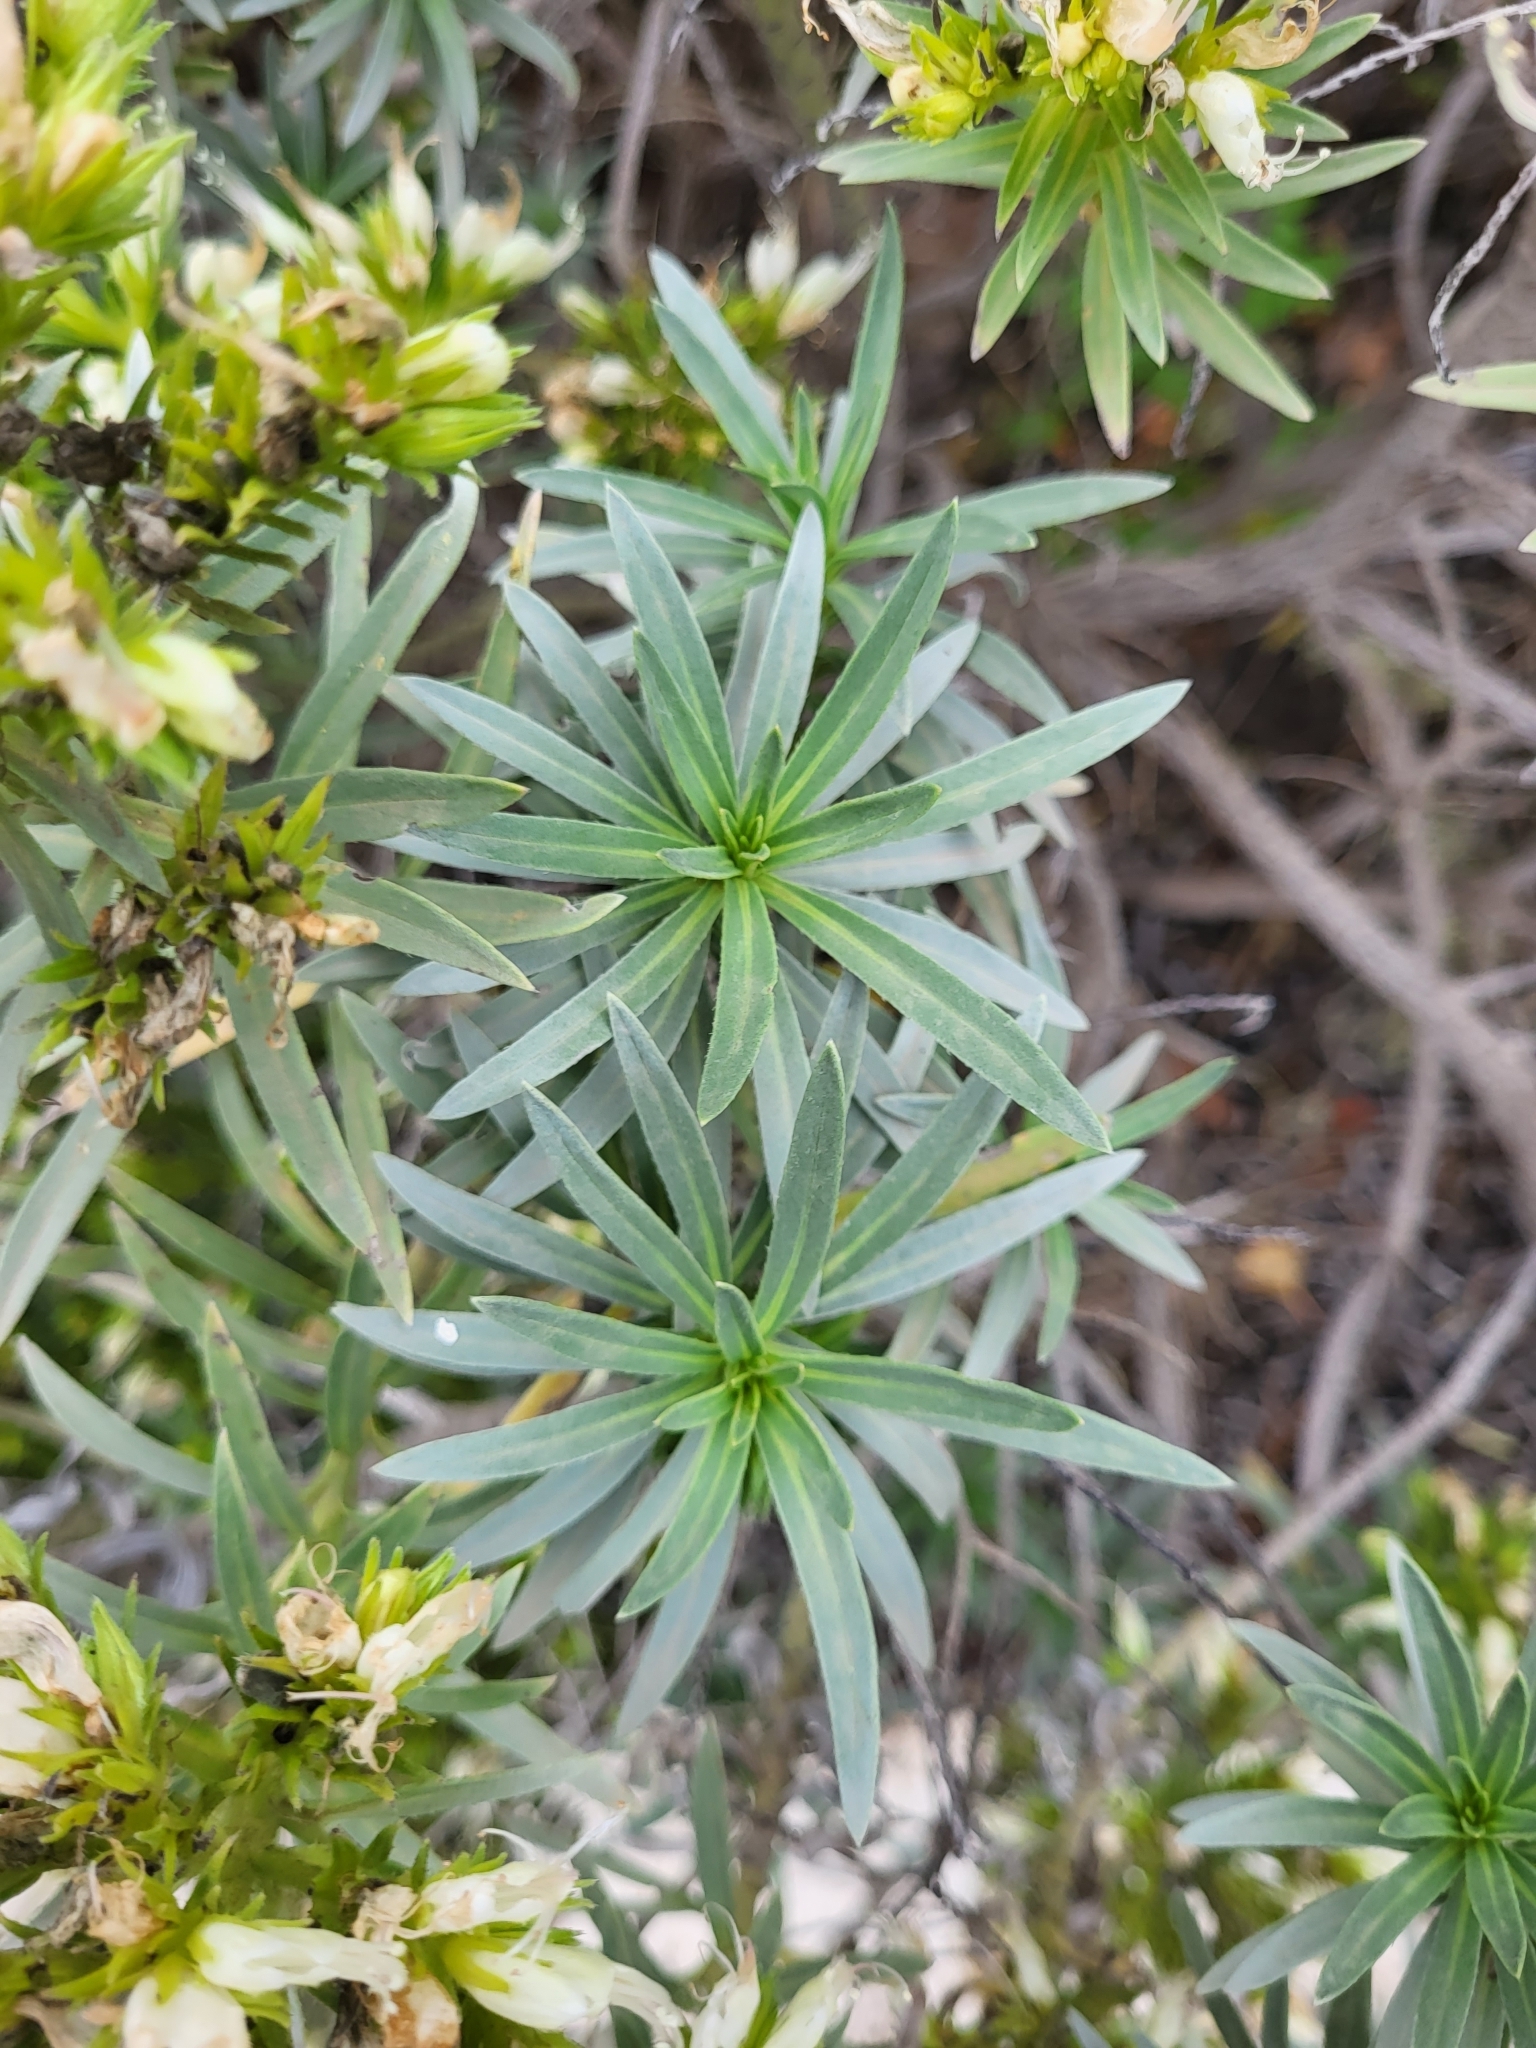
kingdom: Plantae
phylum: Tracheophyta
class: Magnoliopsida
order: Boraginales
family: Boraginaceae
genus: Echium
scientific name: Echium aculeatum
